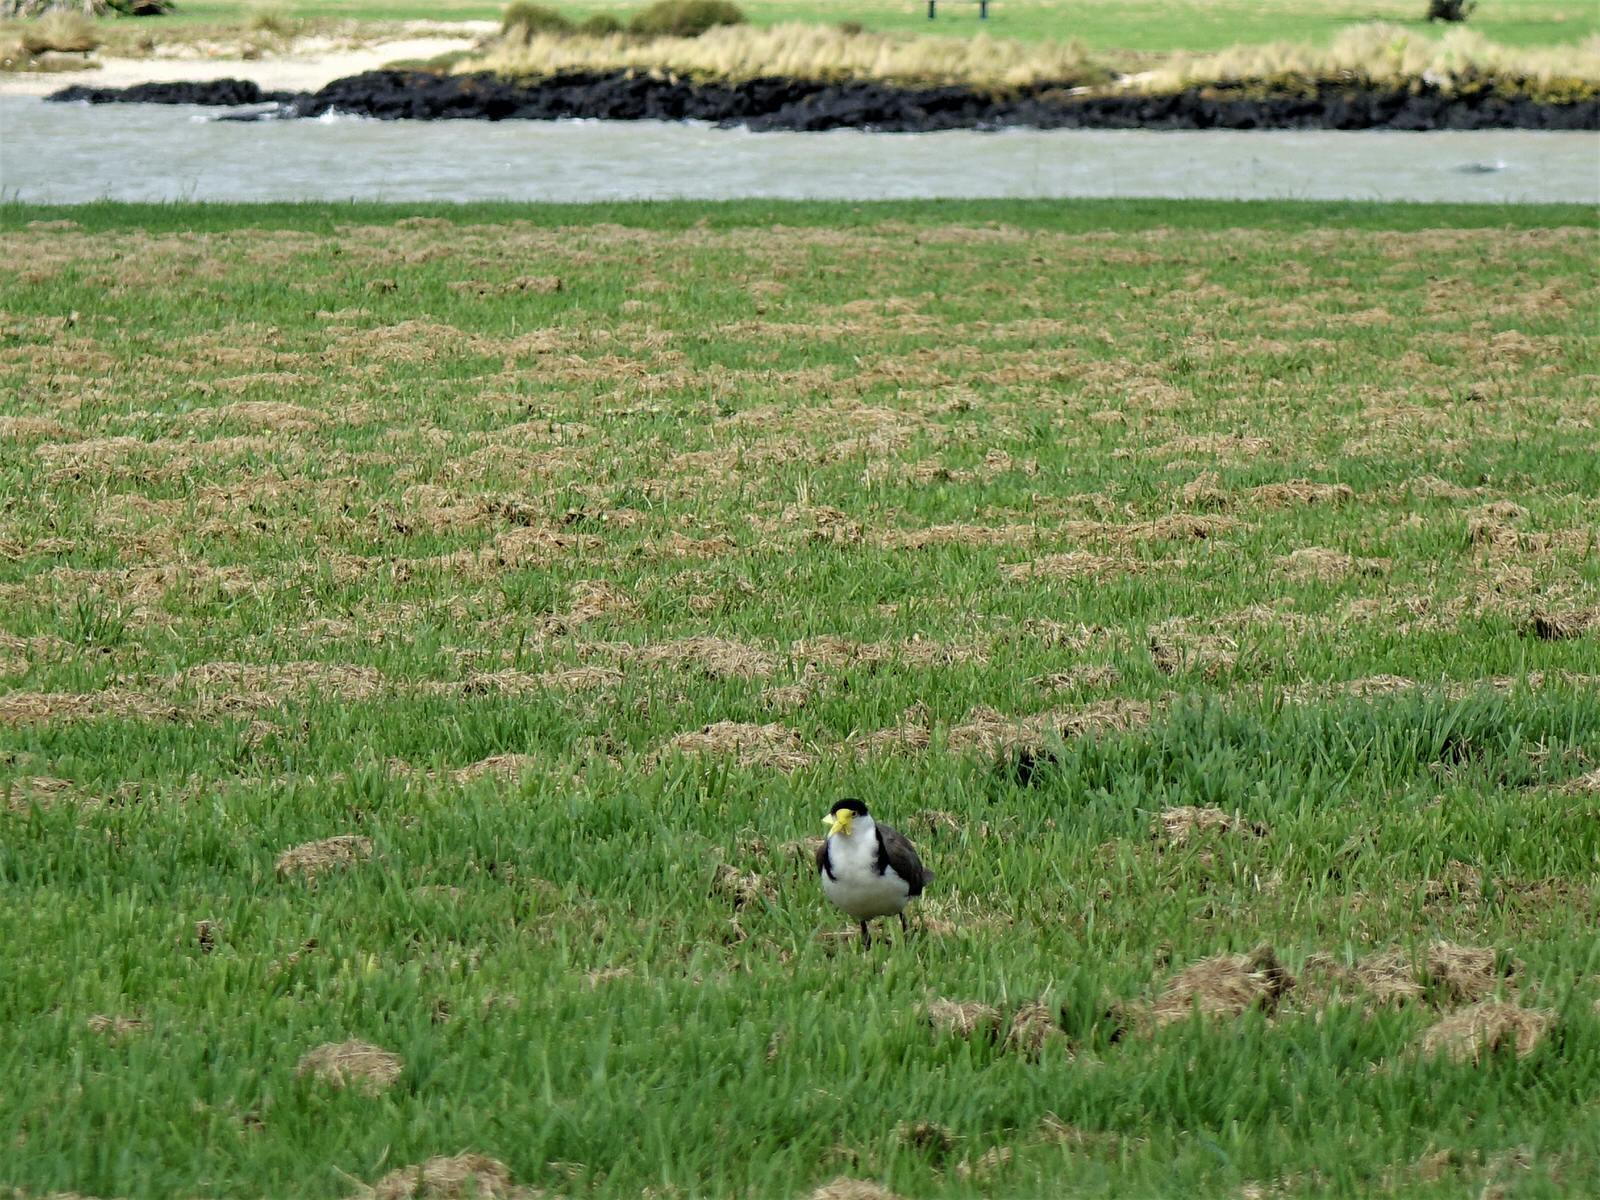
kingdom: Animalia
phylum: Chordata
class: Aves
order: Charadriiformes
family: Charadriidae
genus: Vanellus
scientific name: Vanellus miles
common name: Masked lapwing
